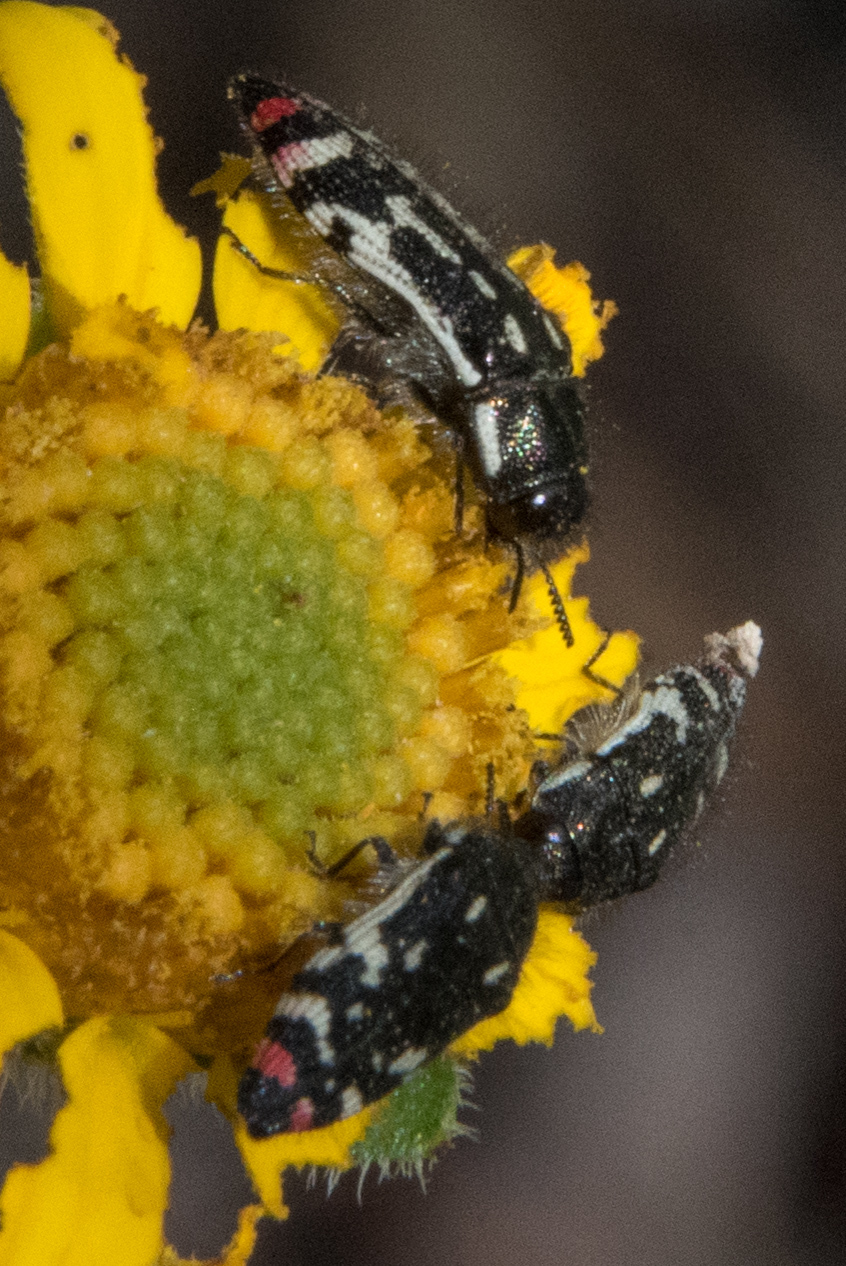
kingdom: Animalia
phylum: Arthropoda
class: Insecta
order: Coleoptera
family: Buprestidae
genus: Acmaeodera
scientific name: Acmaeodera opacula
